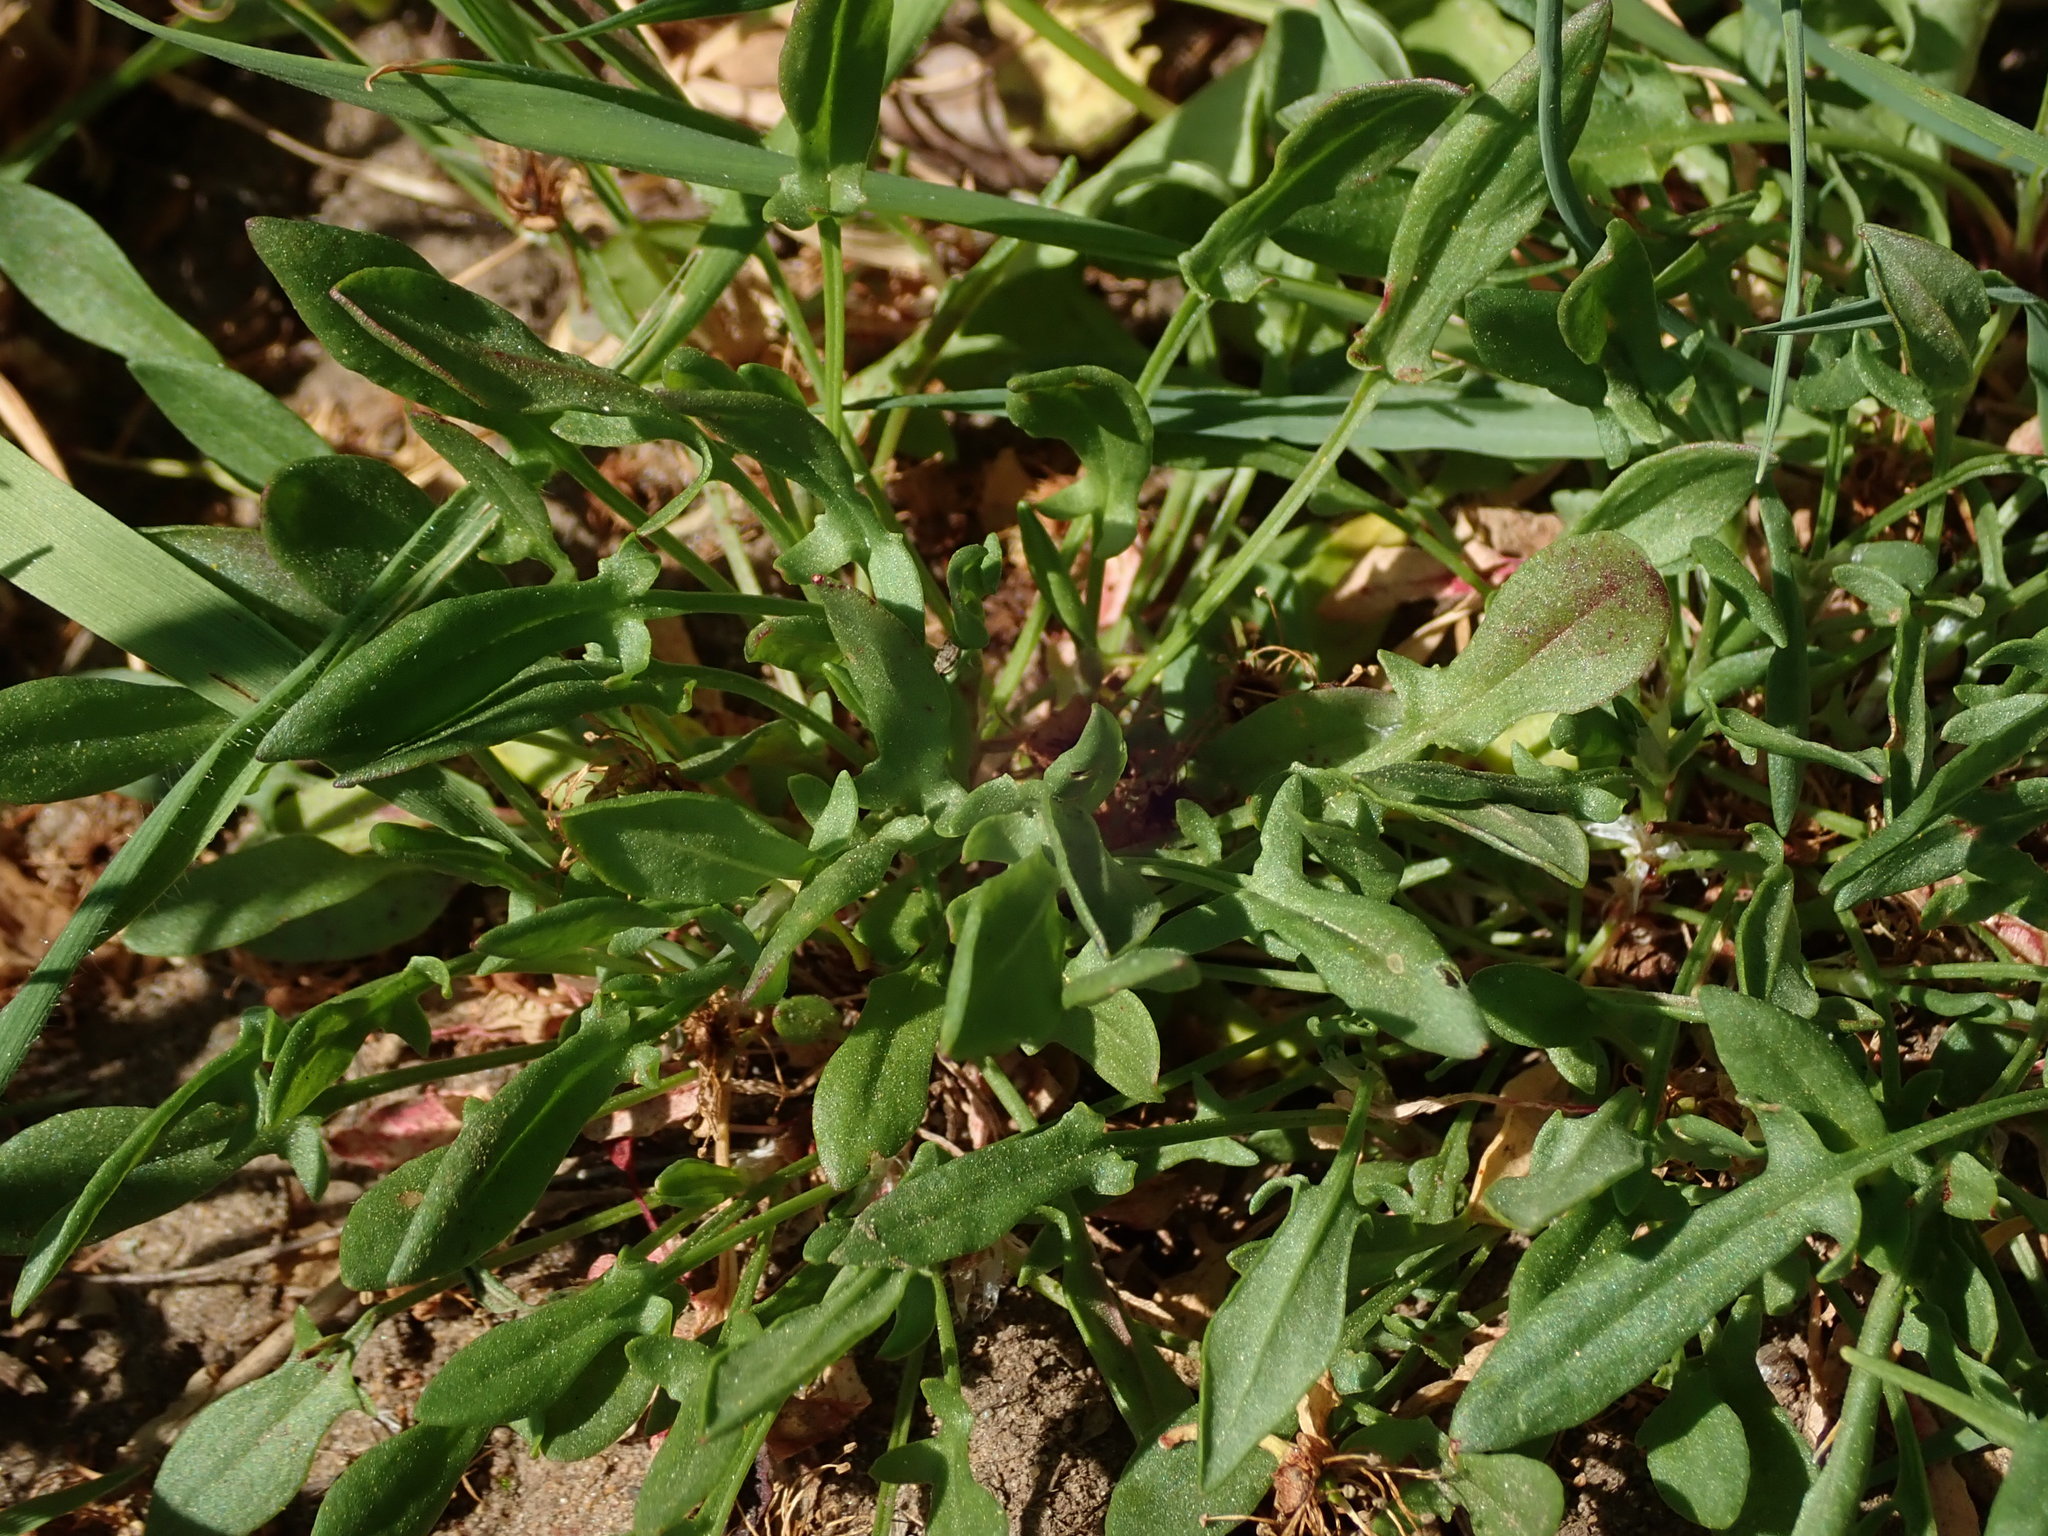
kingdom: Plantae
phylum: Tracheophyta
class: Magnoliopsida
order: Caryophyllales
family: Polygonaceae
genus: Rumex
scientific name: Rumex acetosella
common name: Common sheep sorrel
